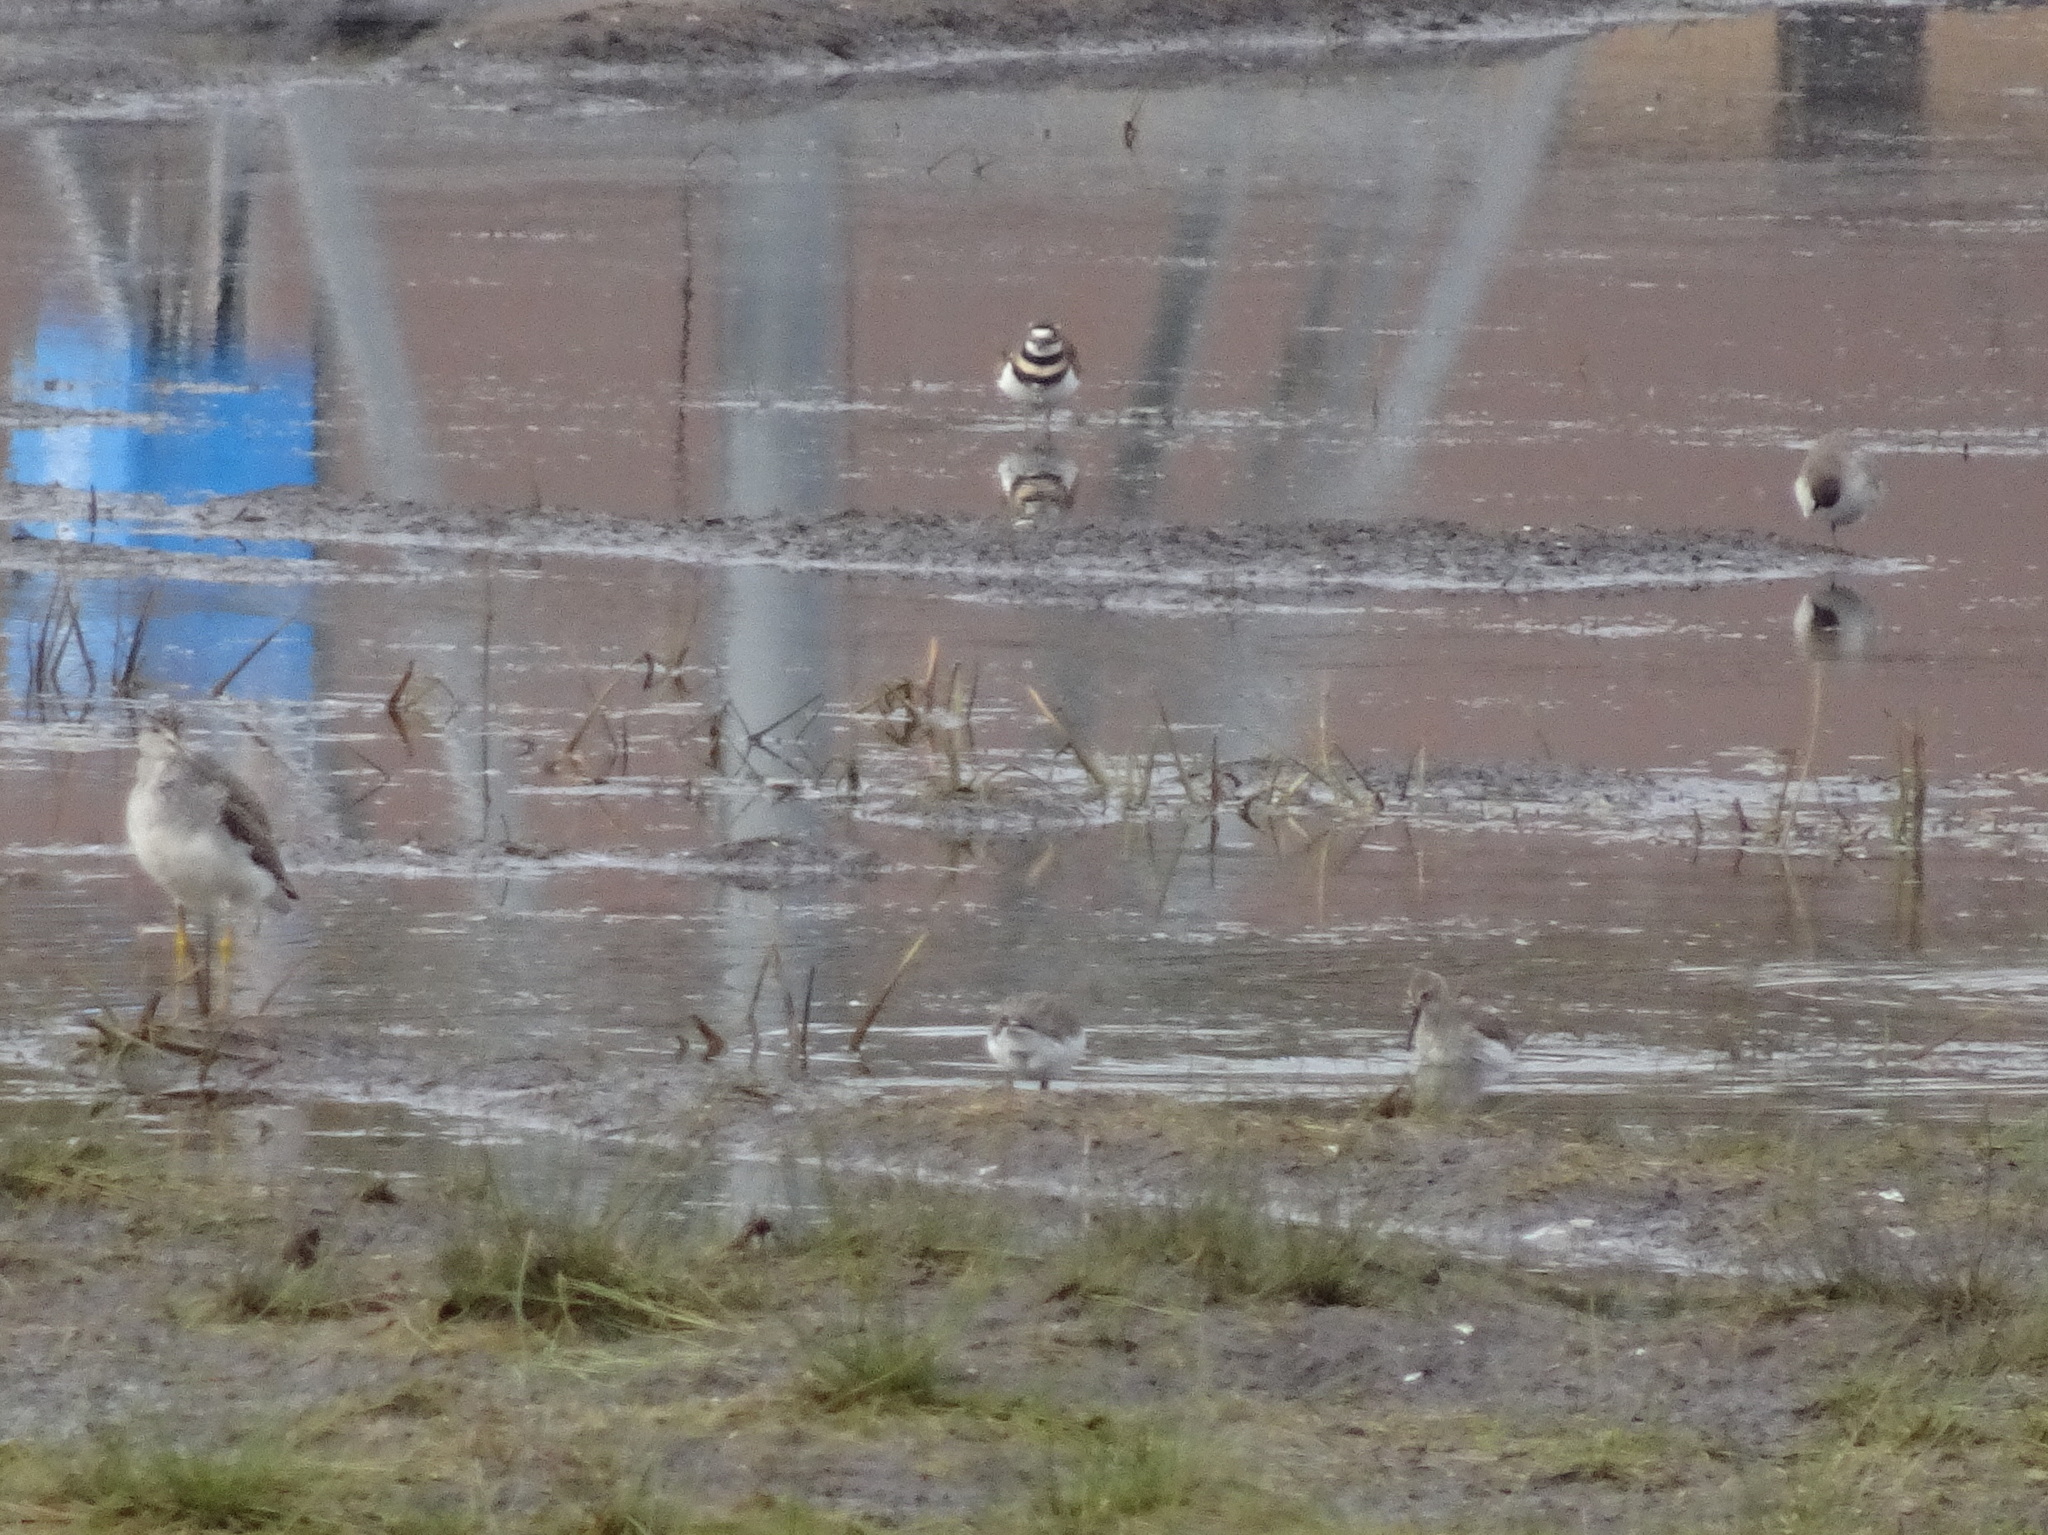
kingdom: Animalia
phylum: Chordata
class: Aves
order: Charadriiformes
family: Scolopacidae
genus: Tringa
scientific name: Tringa melanoleuca
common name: Greater yellowlegs
